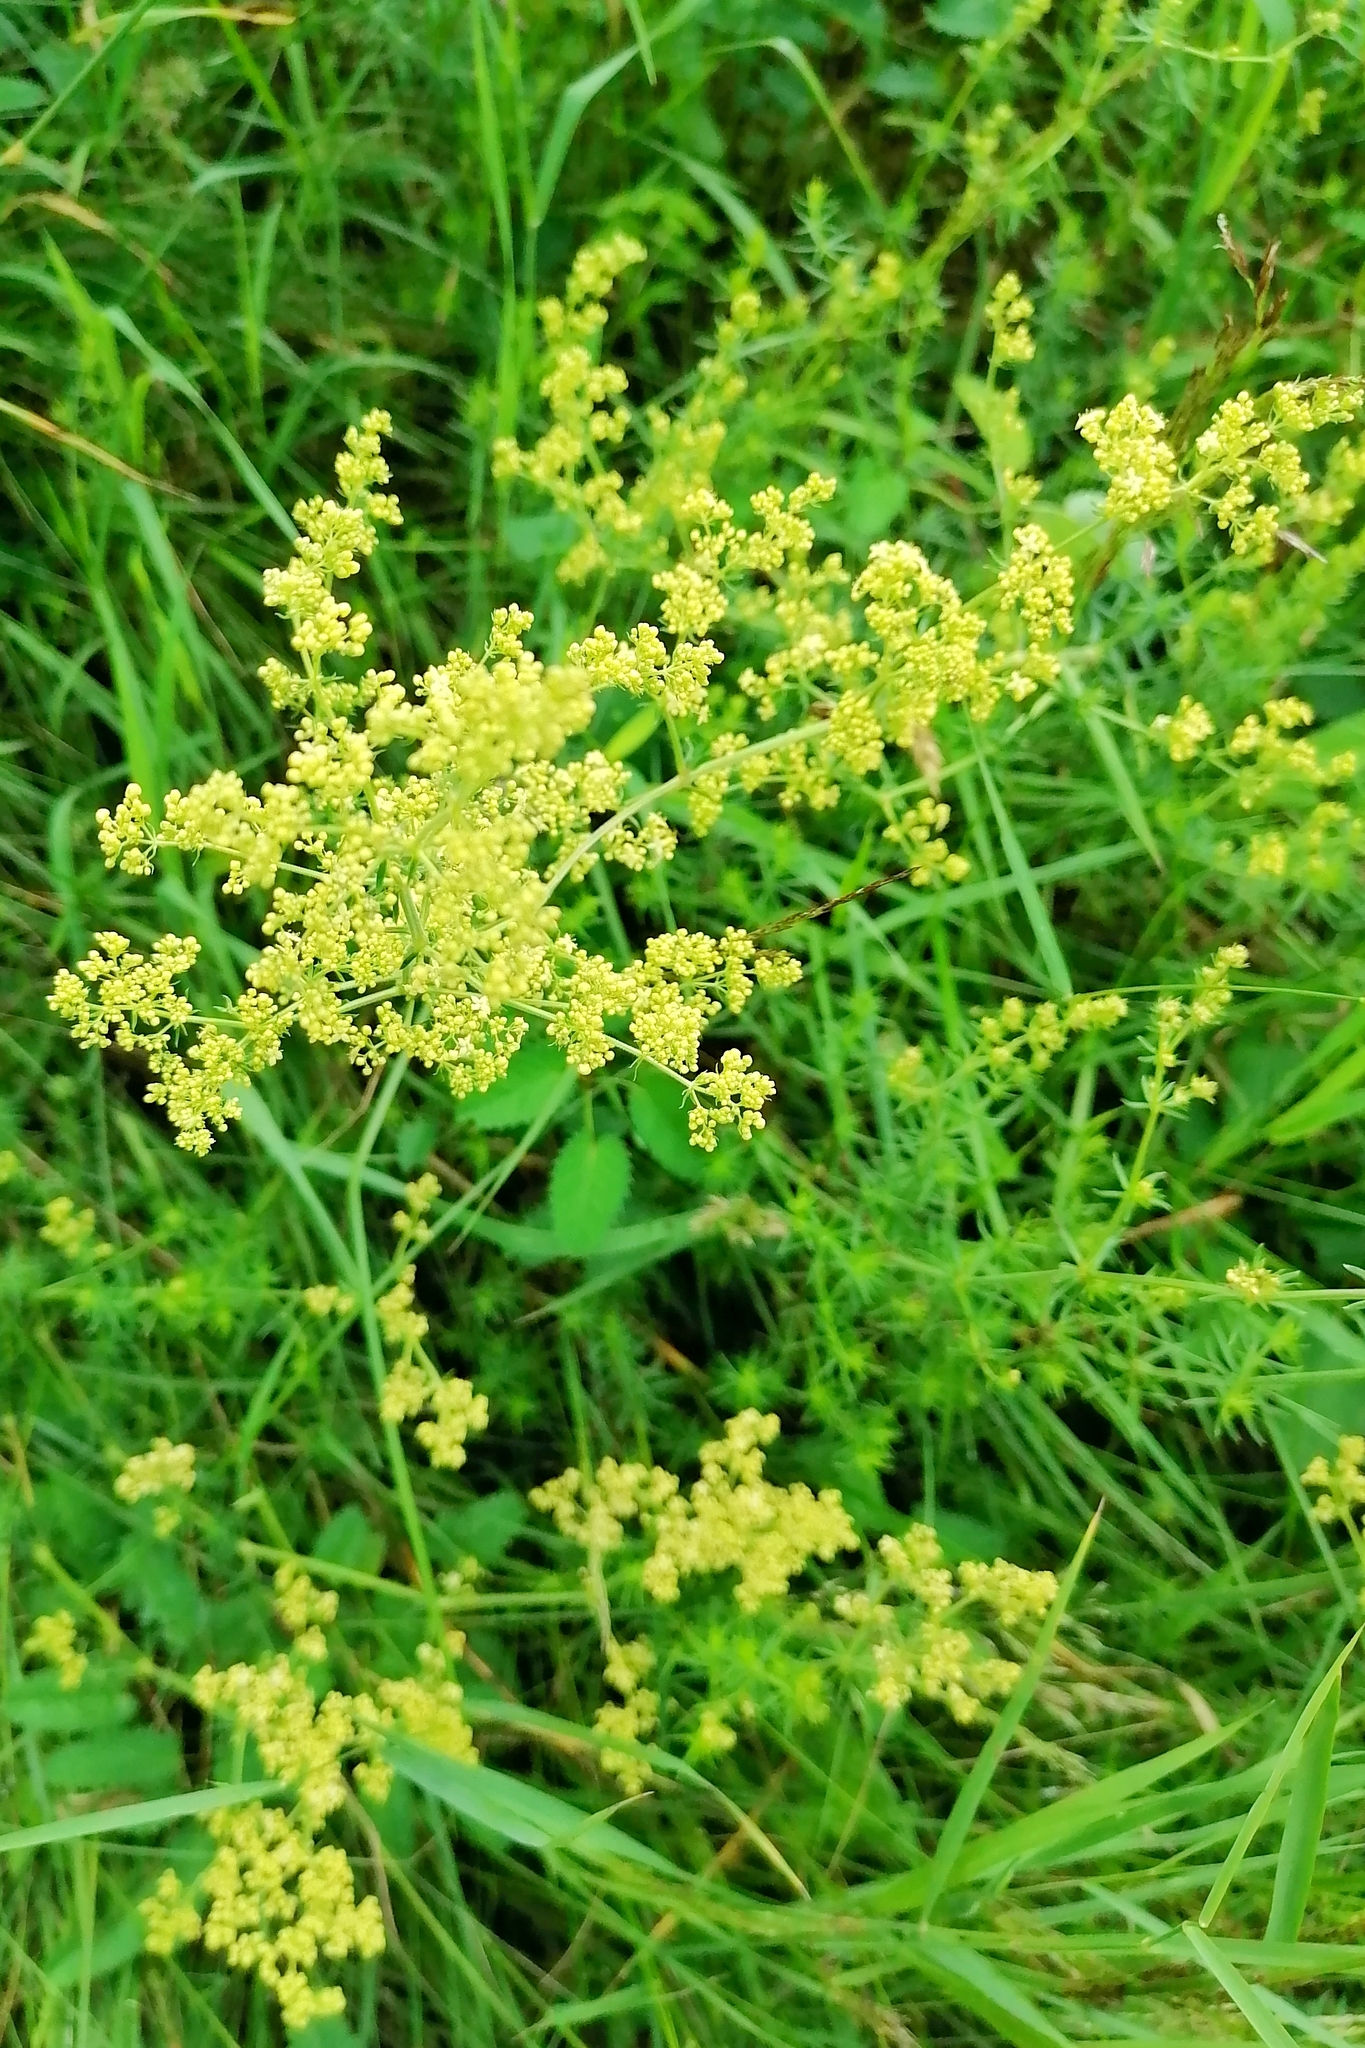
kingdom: Plantae
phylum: Tracheophyta
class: Magnoliopsida
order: Gentianales
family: Rubiaceae
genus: Galium
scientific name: Galium verum
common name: Lady's bedstraw
